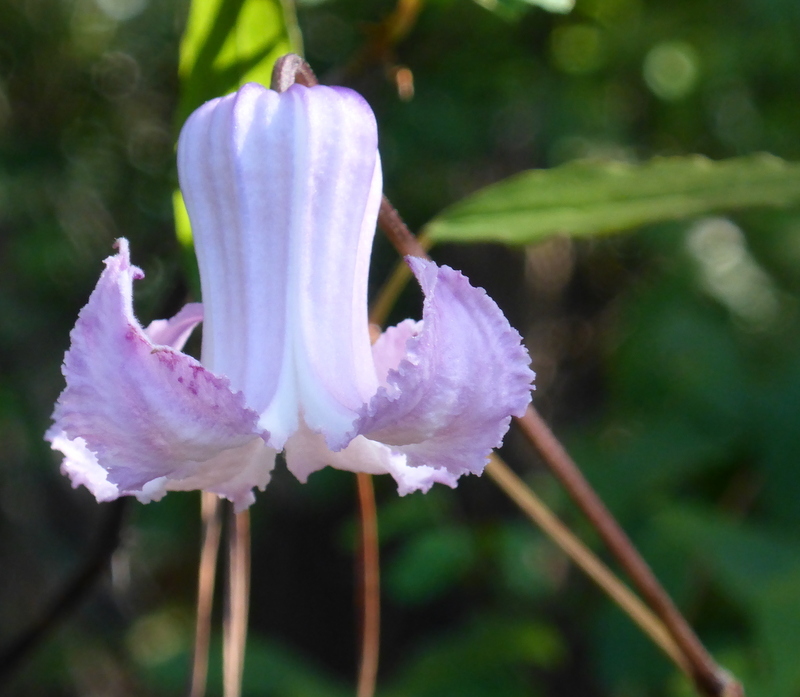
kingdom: Plantae
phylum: Tracheophyta
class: Magnoliopsida
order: Ranunculales
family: Ranunculaceae
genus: Clematis
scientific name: Clematis crispa
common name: Curly clematis
